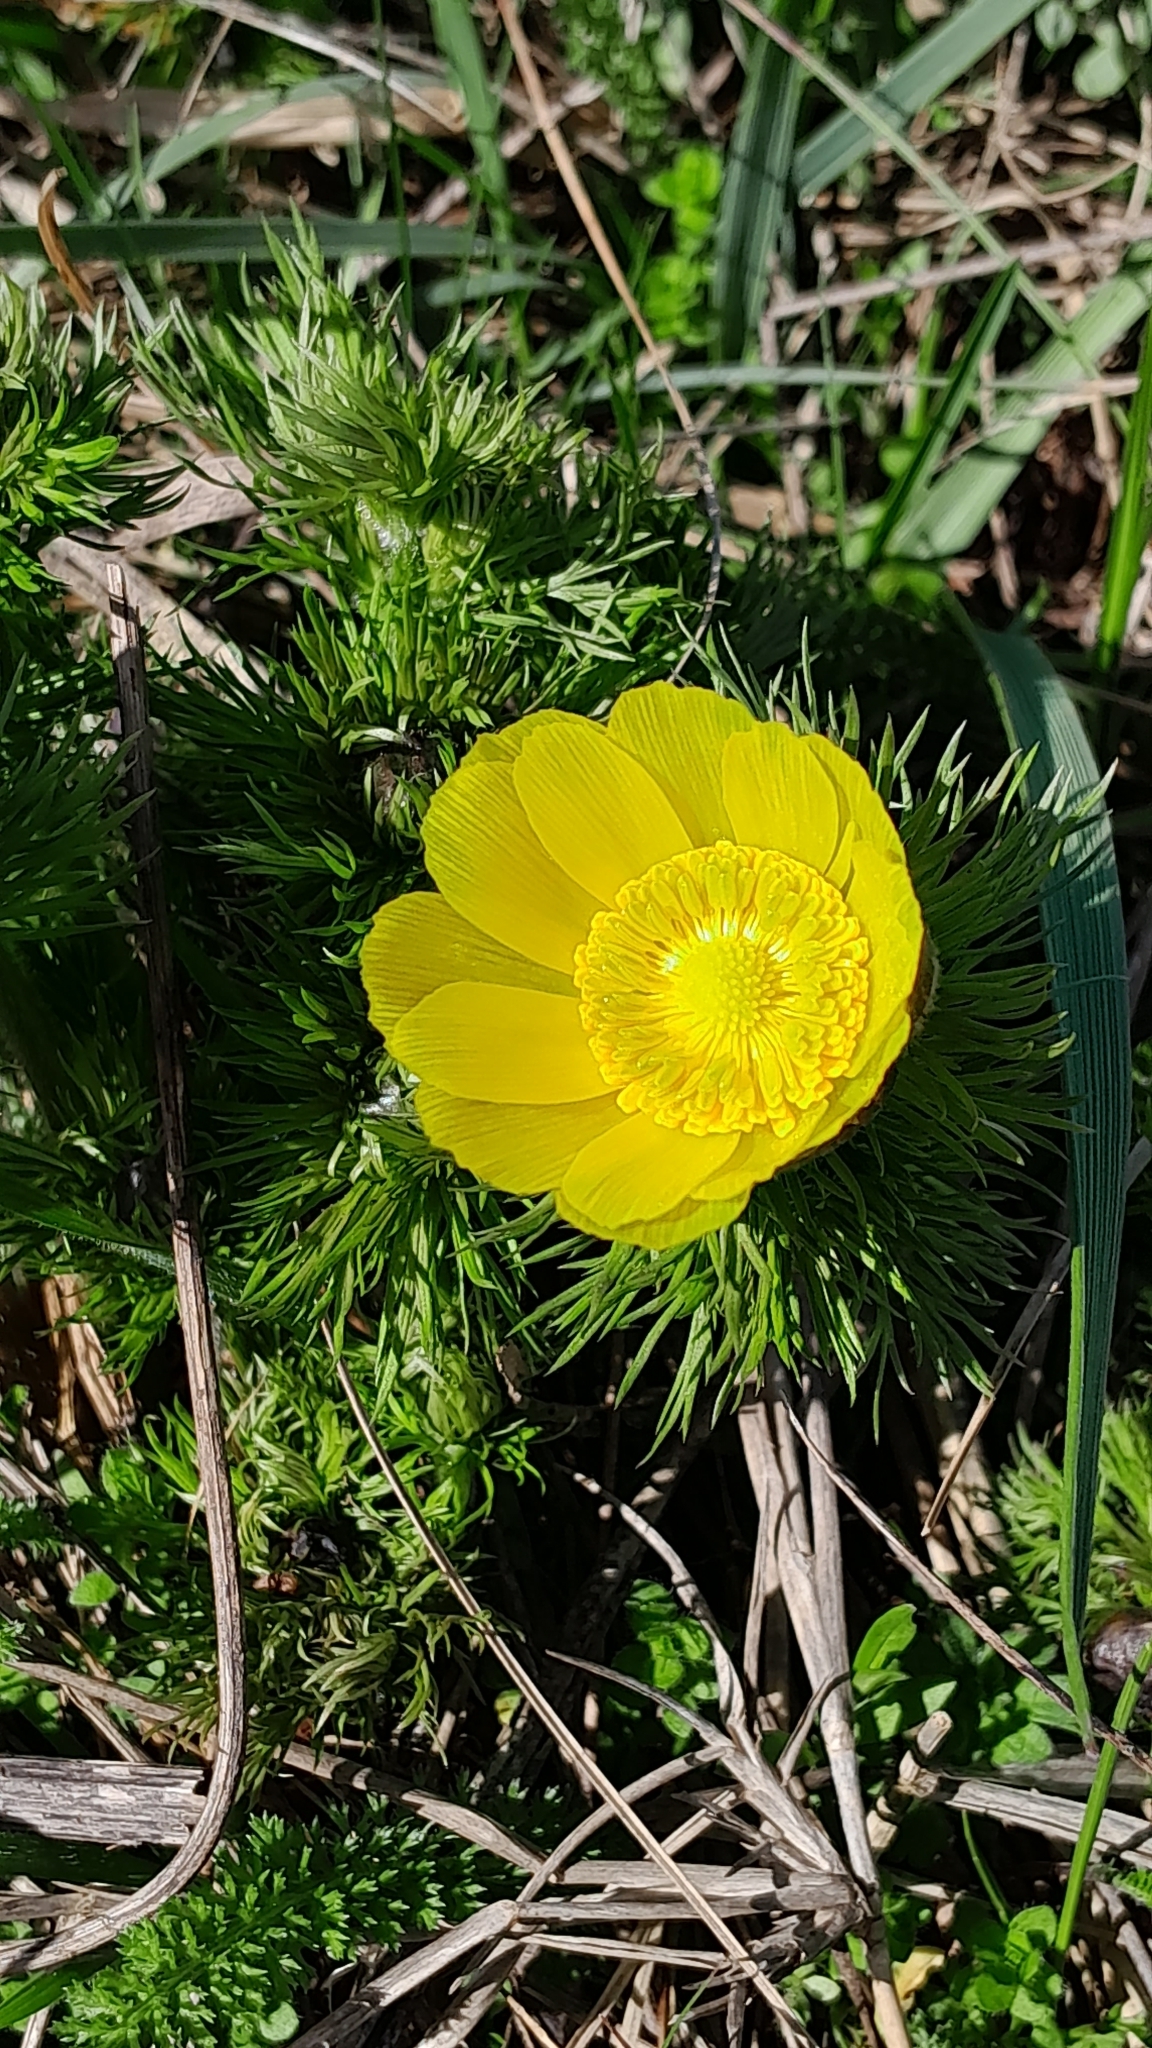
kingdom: Plantae
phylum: Tracheophyta
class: Magnoliopsida
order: Ranunculales
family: Ranunculaceae
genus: Adonis
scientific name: Adonis vernalis
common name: Yellow pheasants-eye
